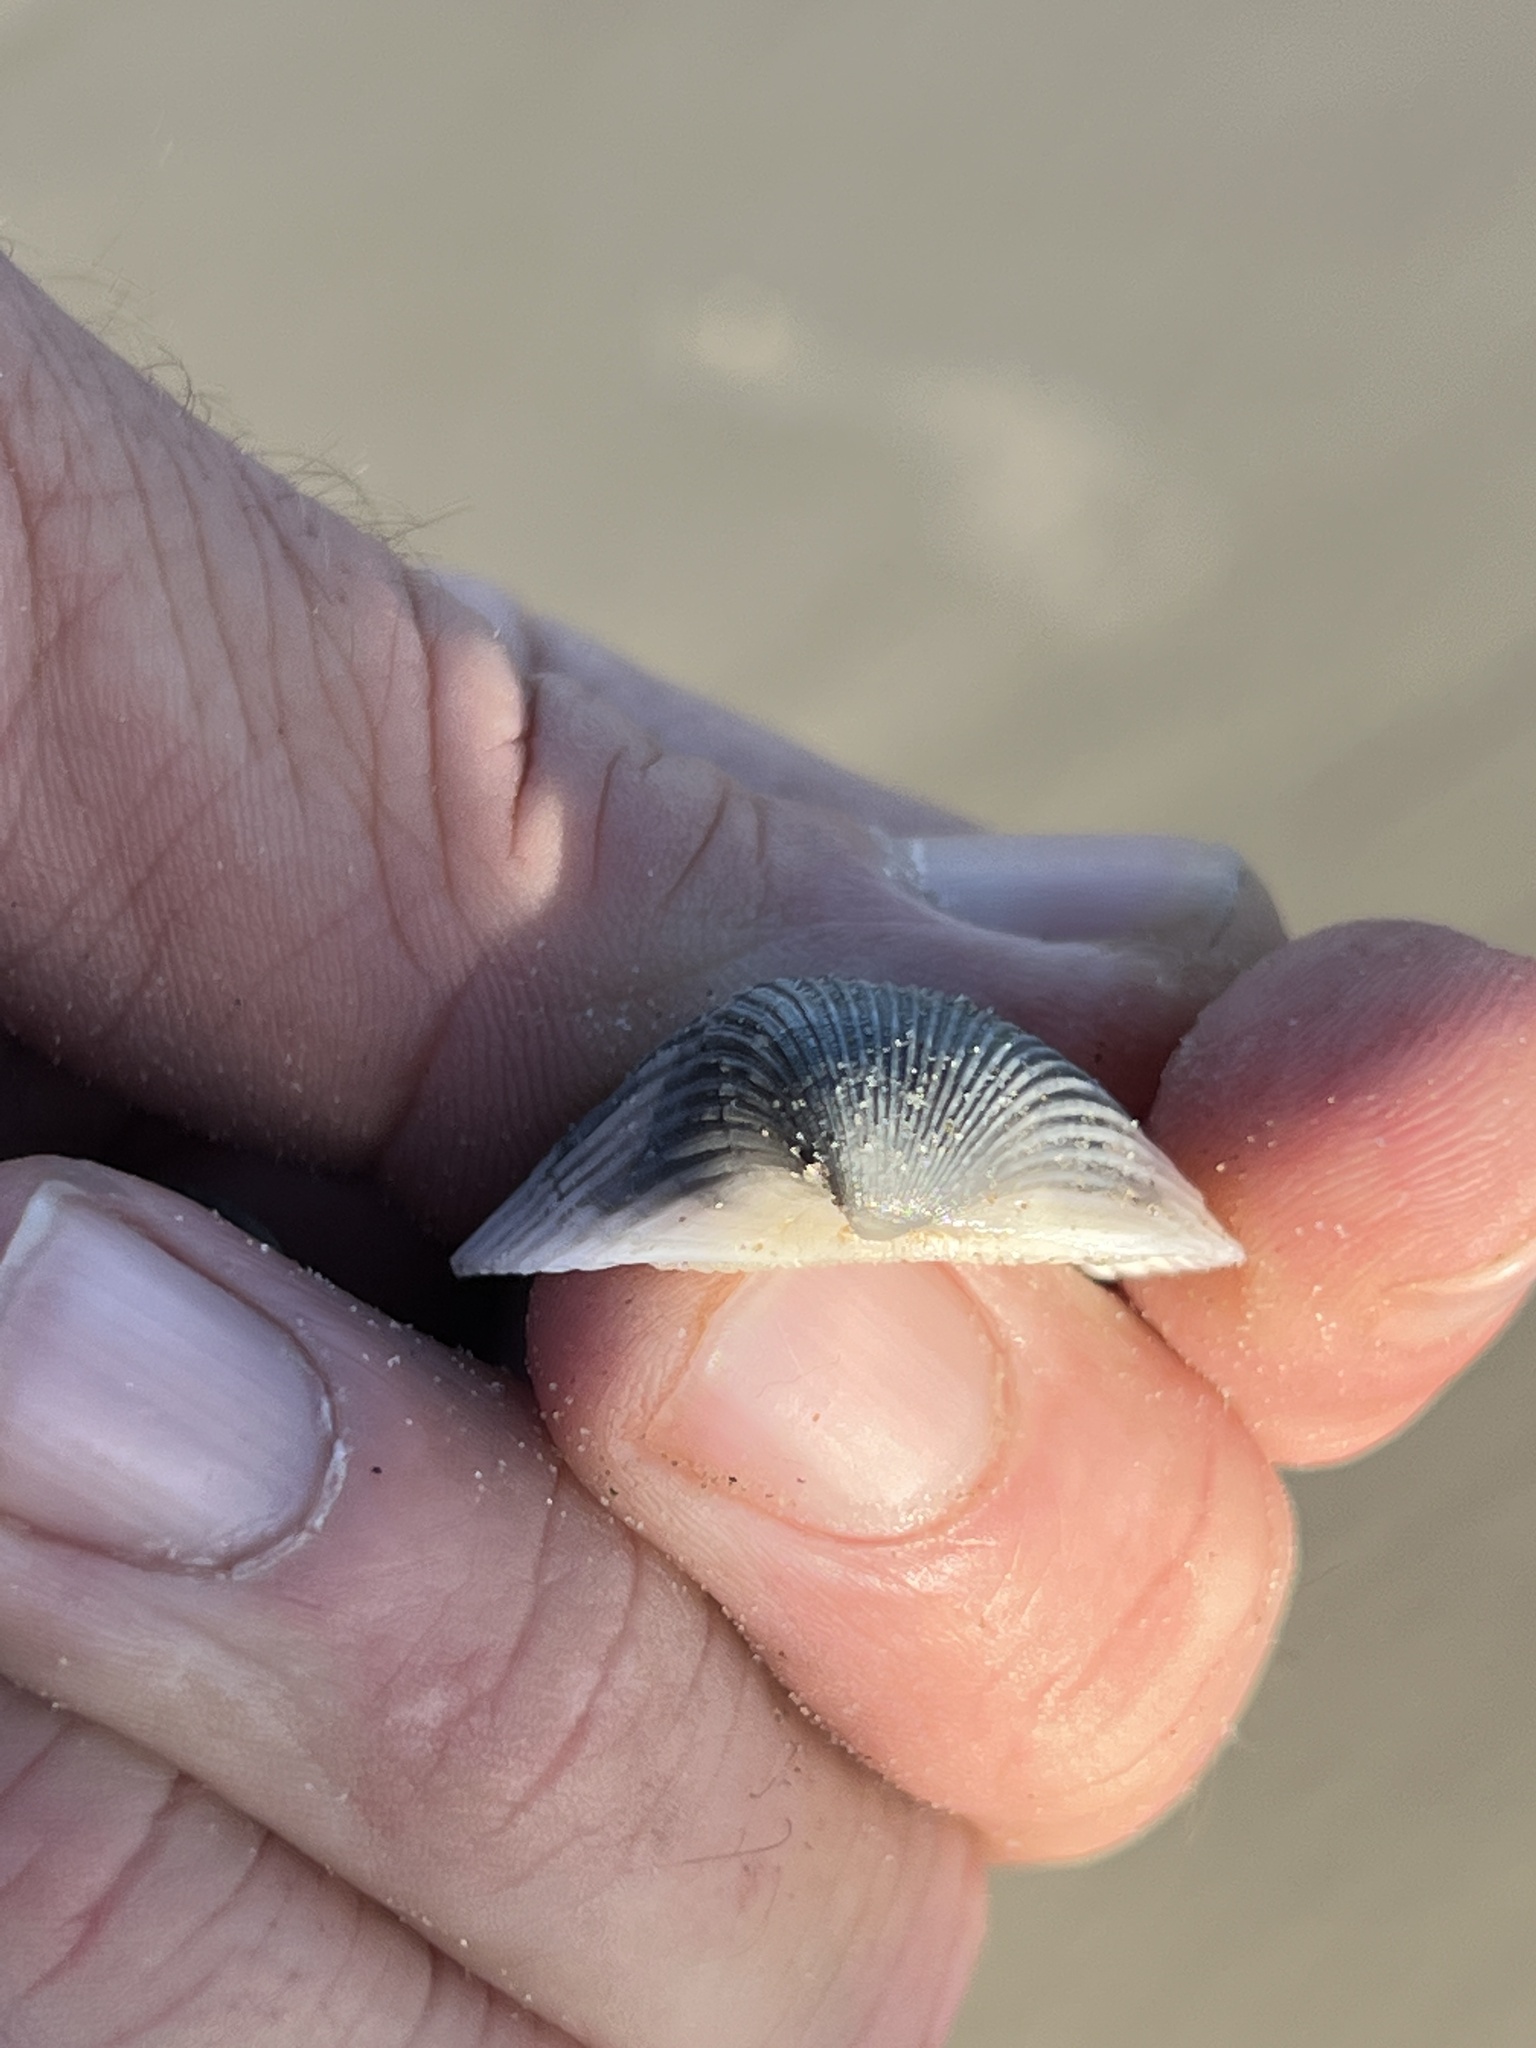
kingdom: Animalia
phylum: Mollusca
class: Bivalvia
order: Arcida
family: Noetiidae
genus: Noetia
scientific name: Noetia ponderosa
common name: Ponderous ark
